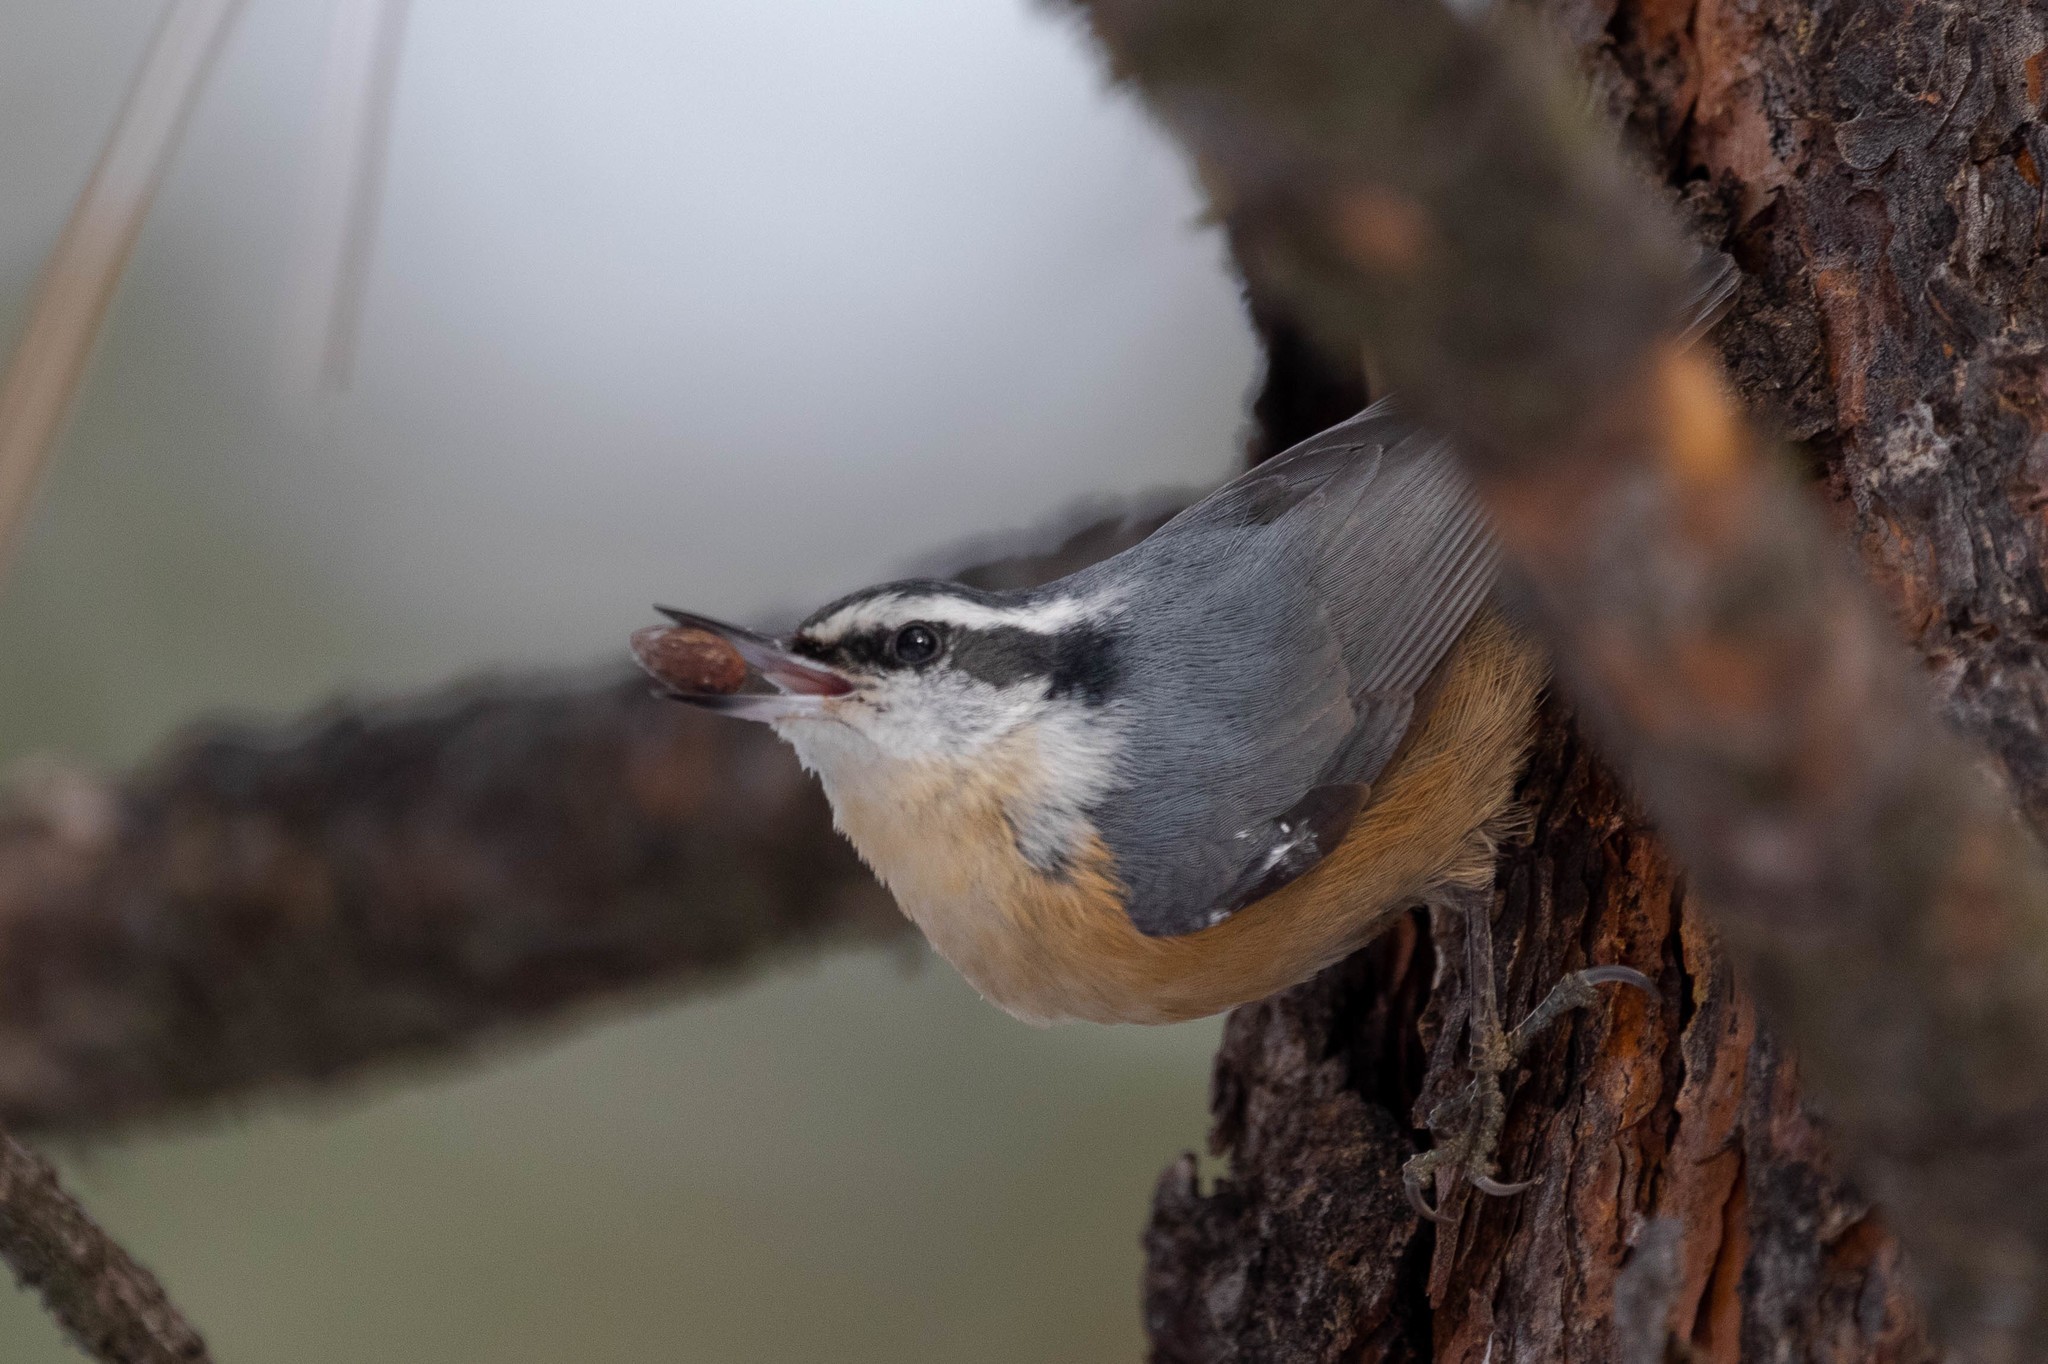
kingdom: Animalia
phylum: Chordata
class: Aves
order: Passeriformes
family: Sittidae
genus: Sitta
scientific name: Sitta canadensis
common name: Red-breasted nuthatch
